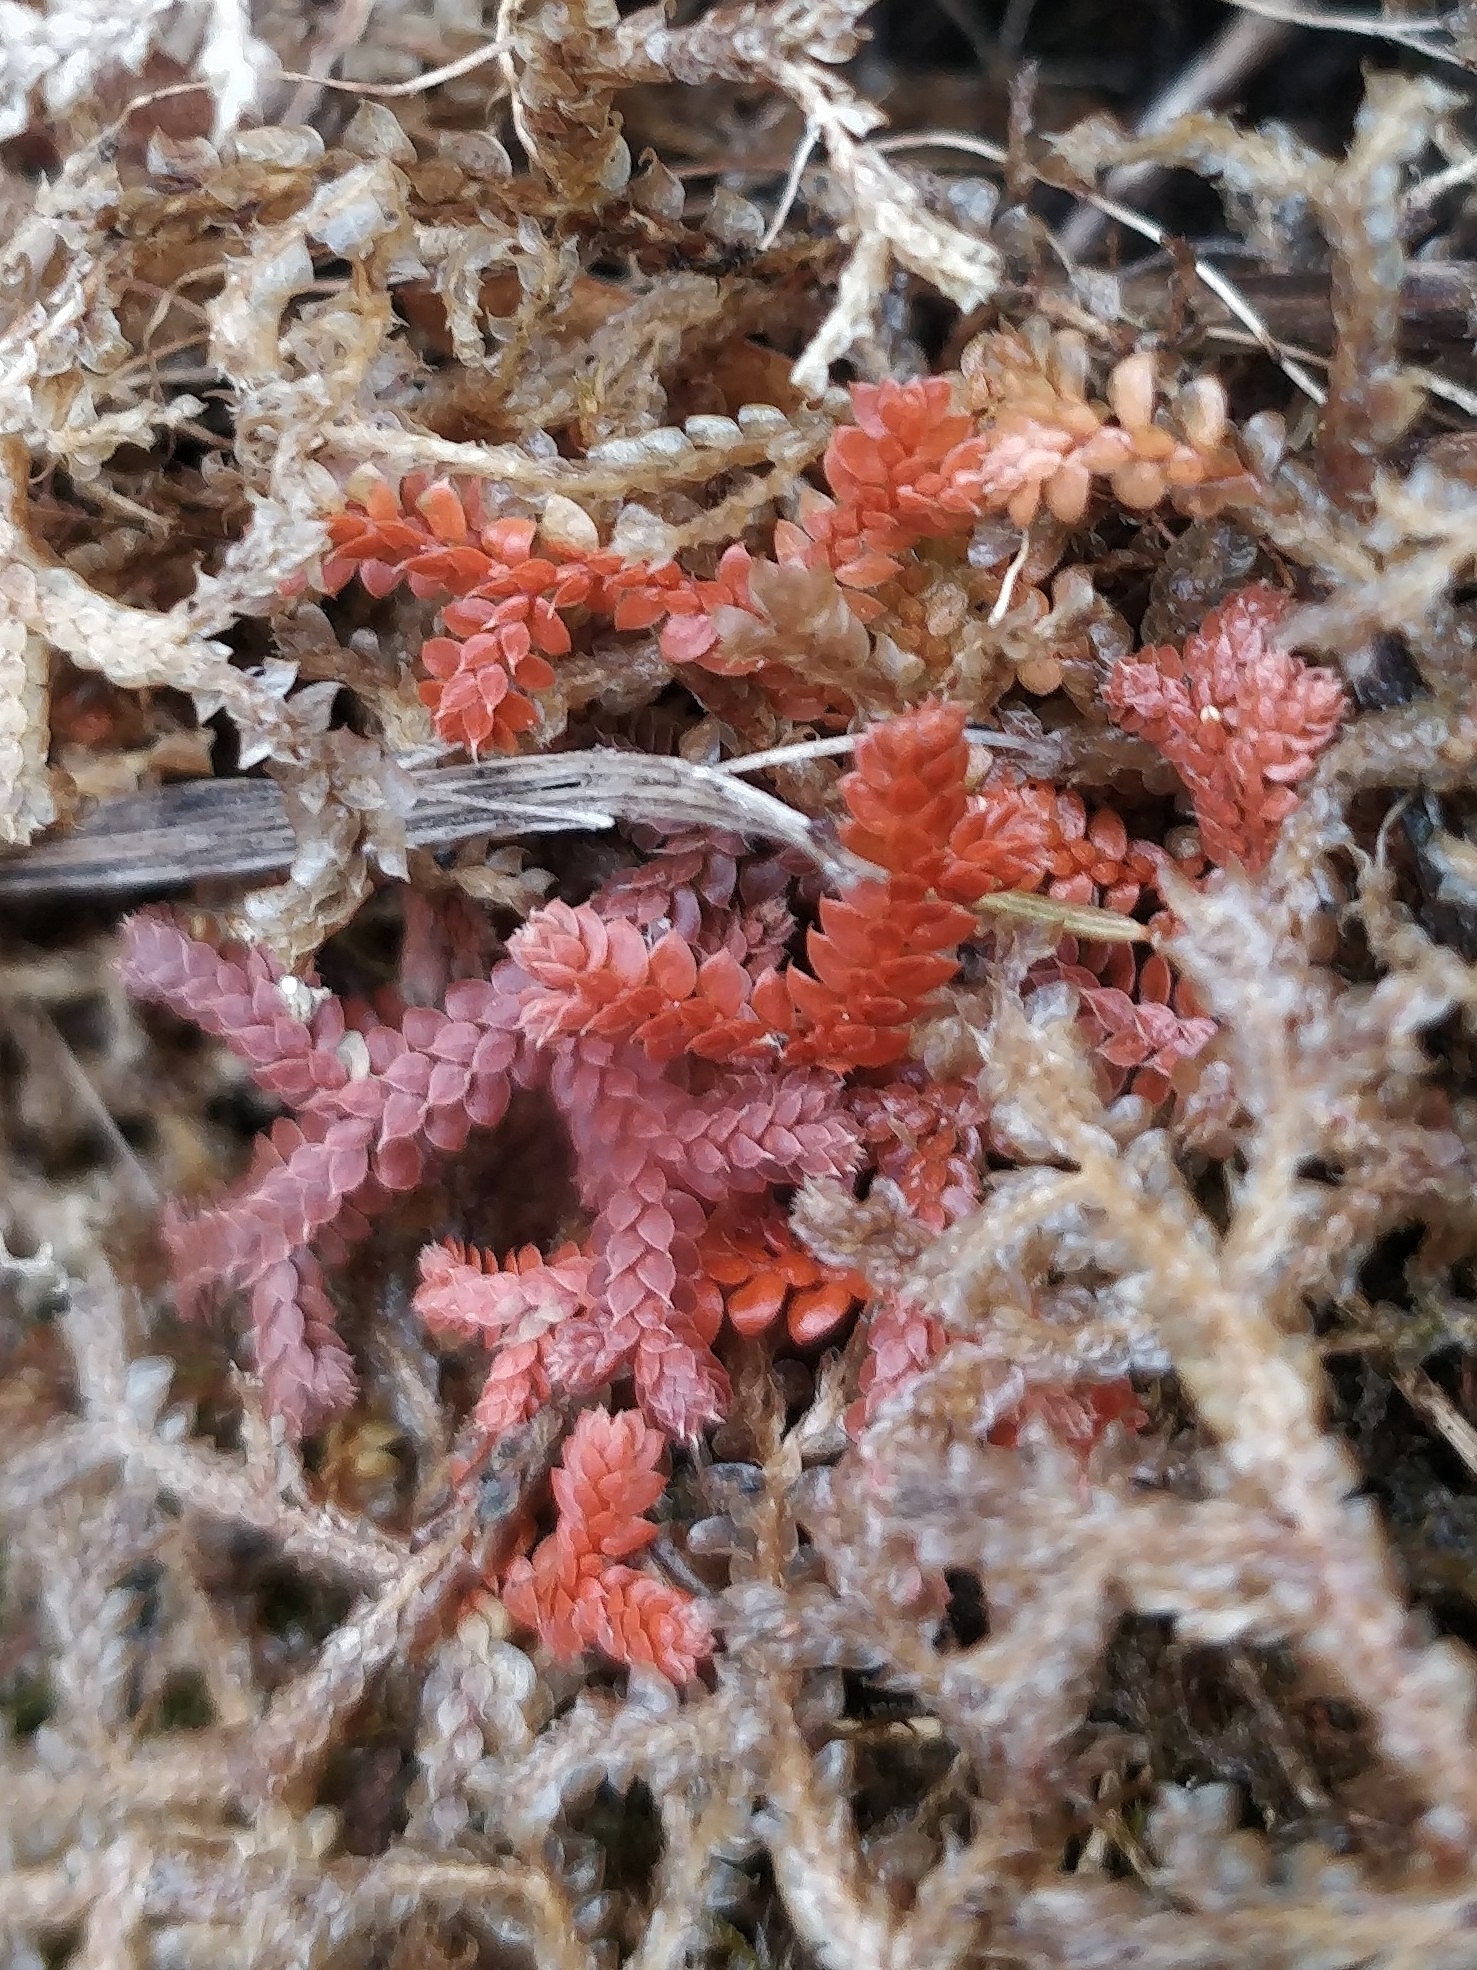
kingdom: Plantae
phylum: Tracheophyta
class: Lycopodiopsida
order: Selaginellales
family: Selaginellaceae
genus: Selaginella
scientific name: Selaginella denticulata
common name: Toothed-leaved clubmoss
